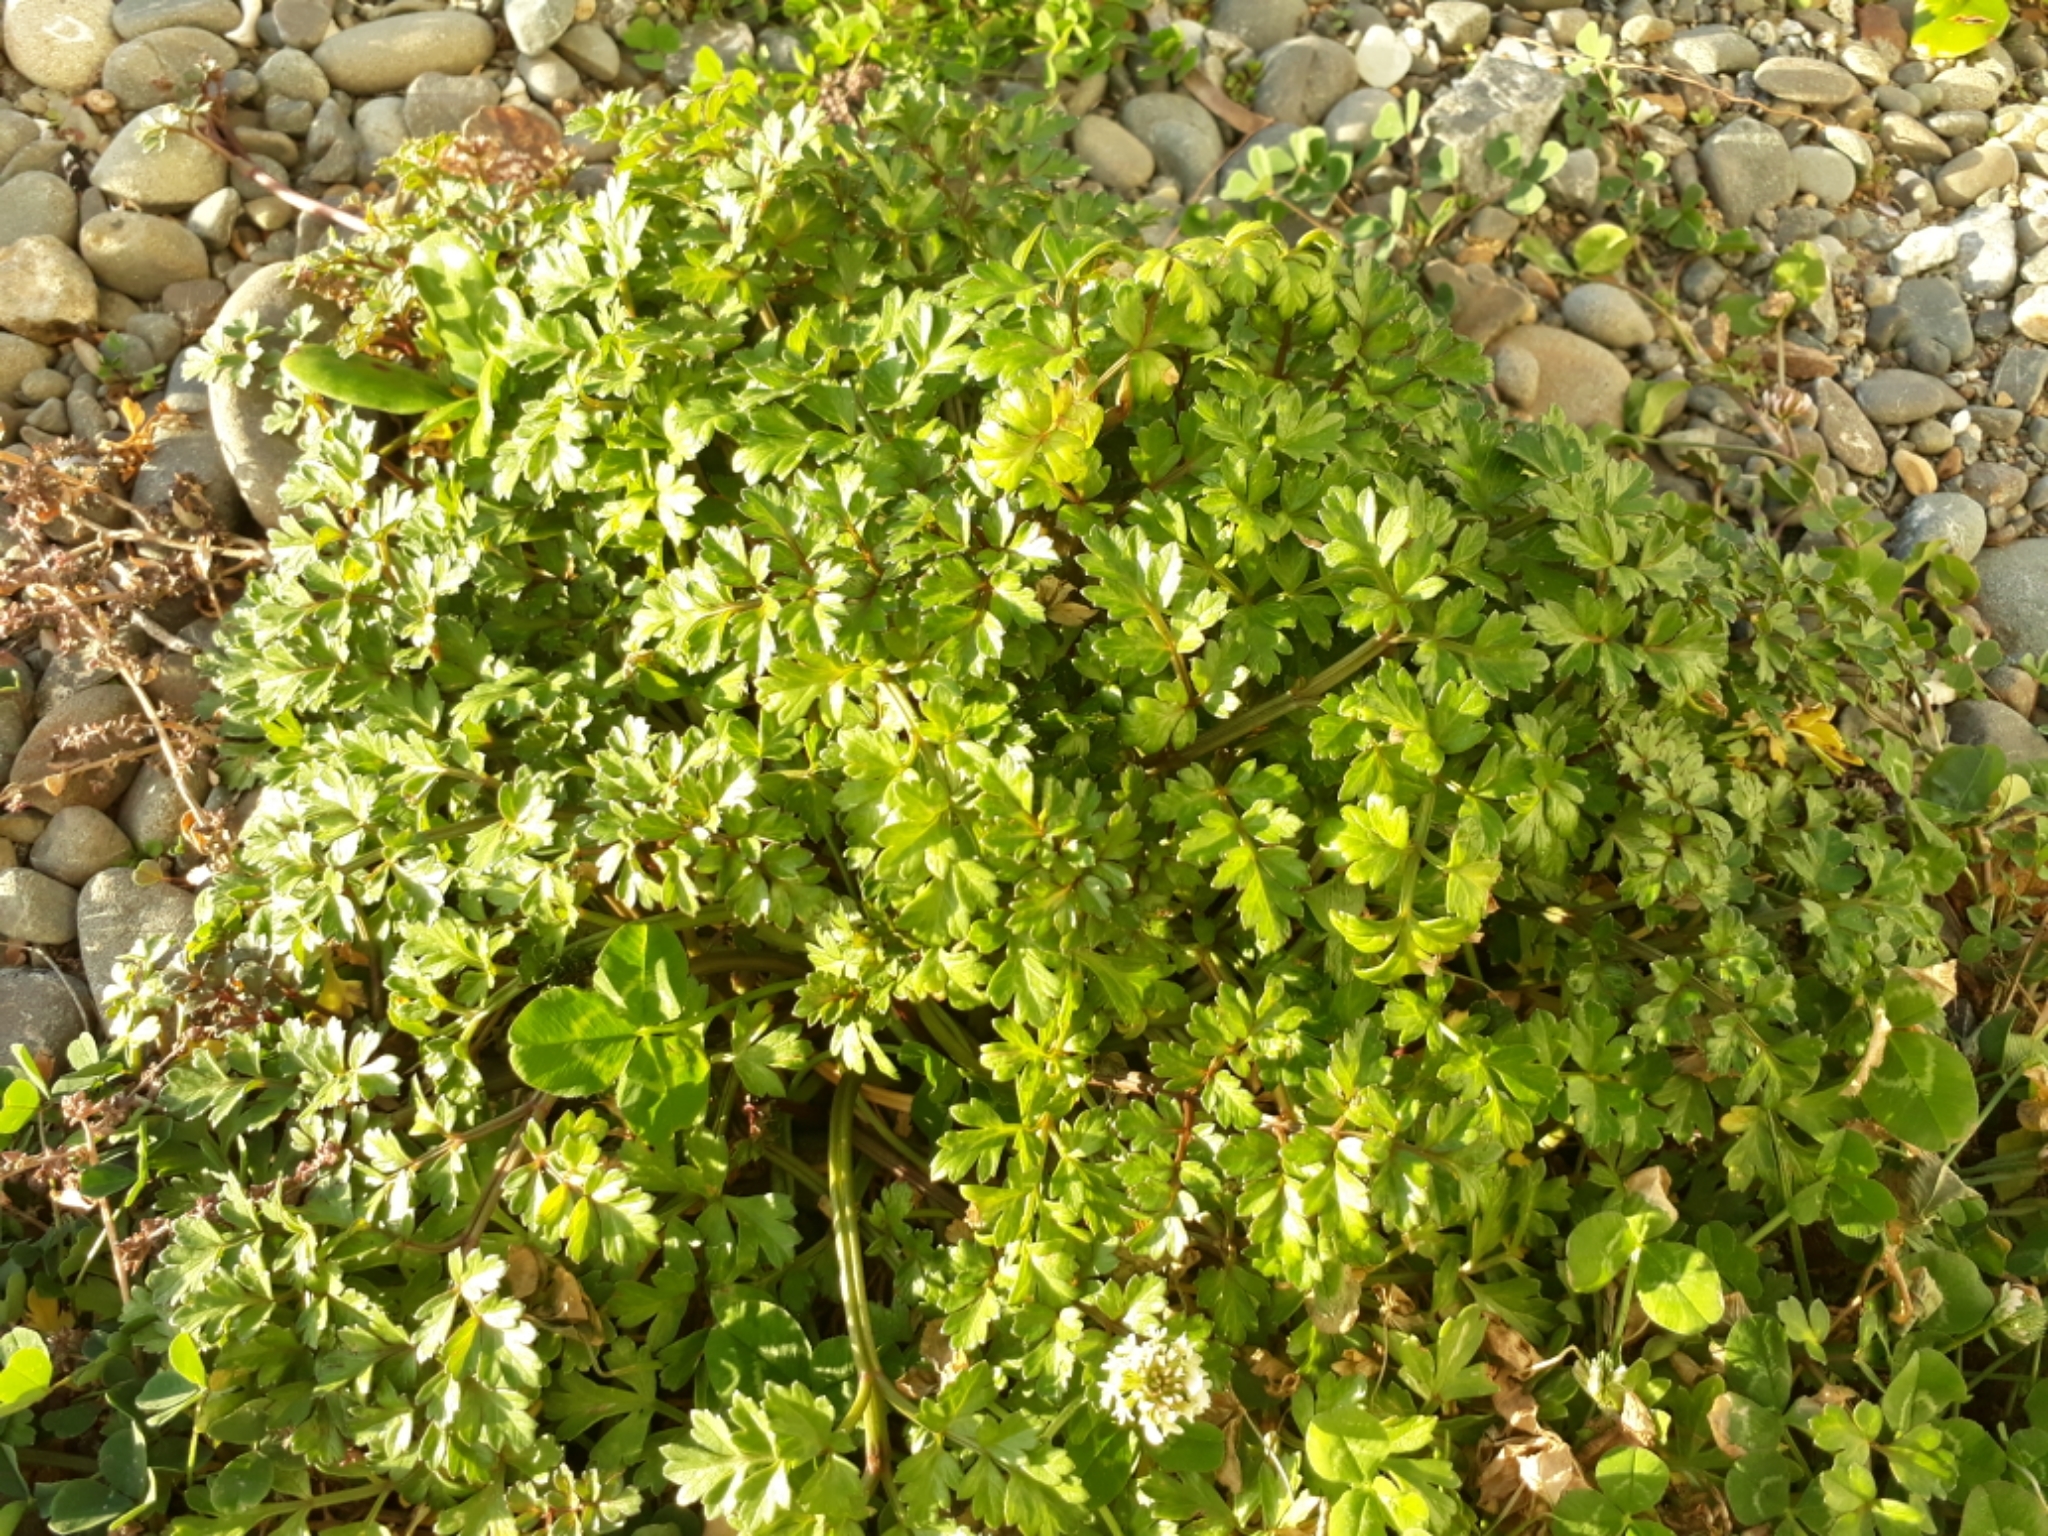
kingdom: Plantae
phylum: Tracheophyta
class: Magnoliopsida
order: Apiales
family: Apiaceae
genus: Apium
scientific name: Apium prostratum
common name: Prostrate marshwort
